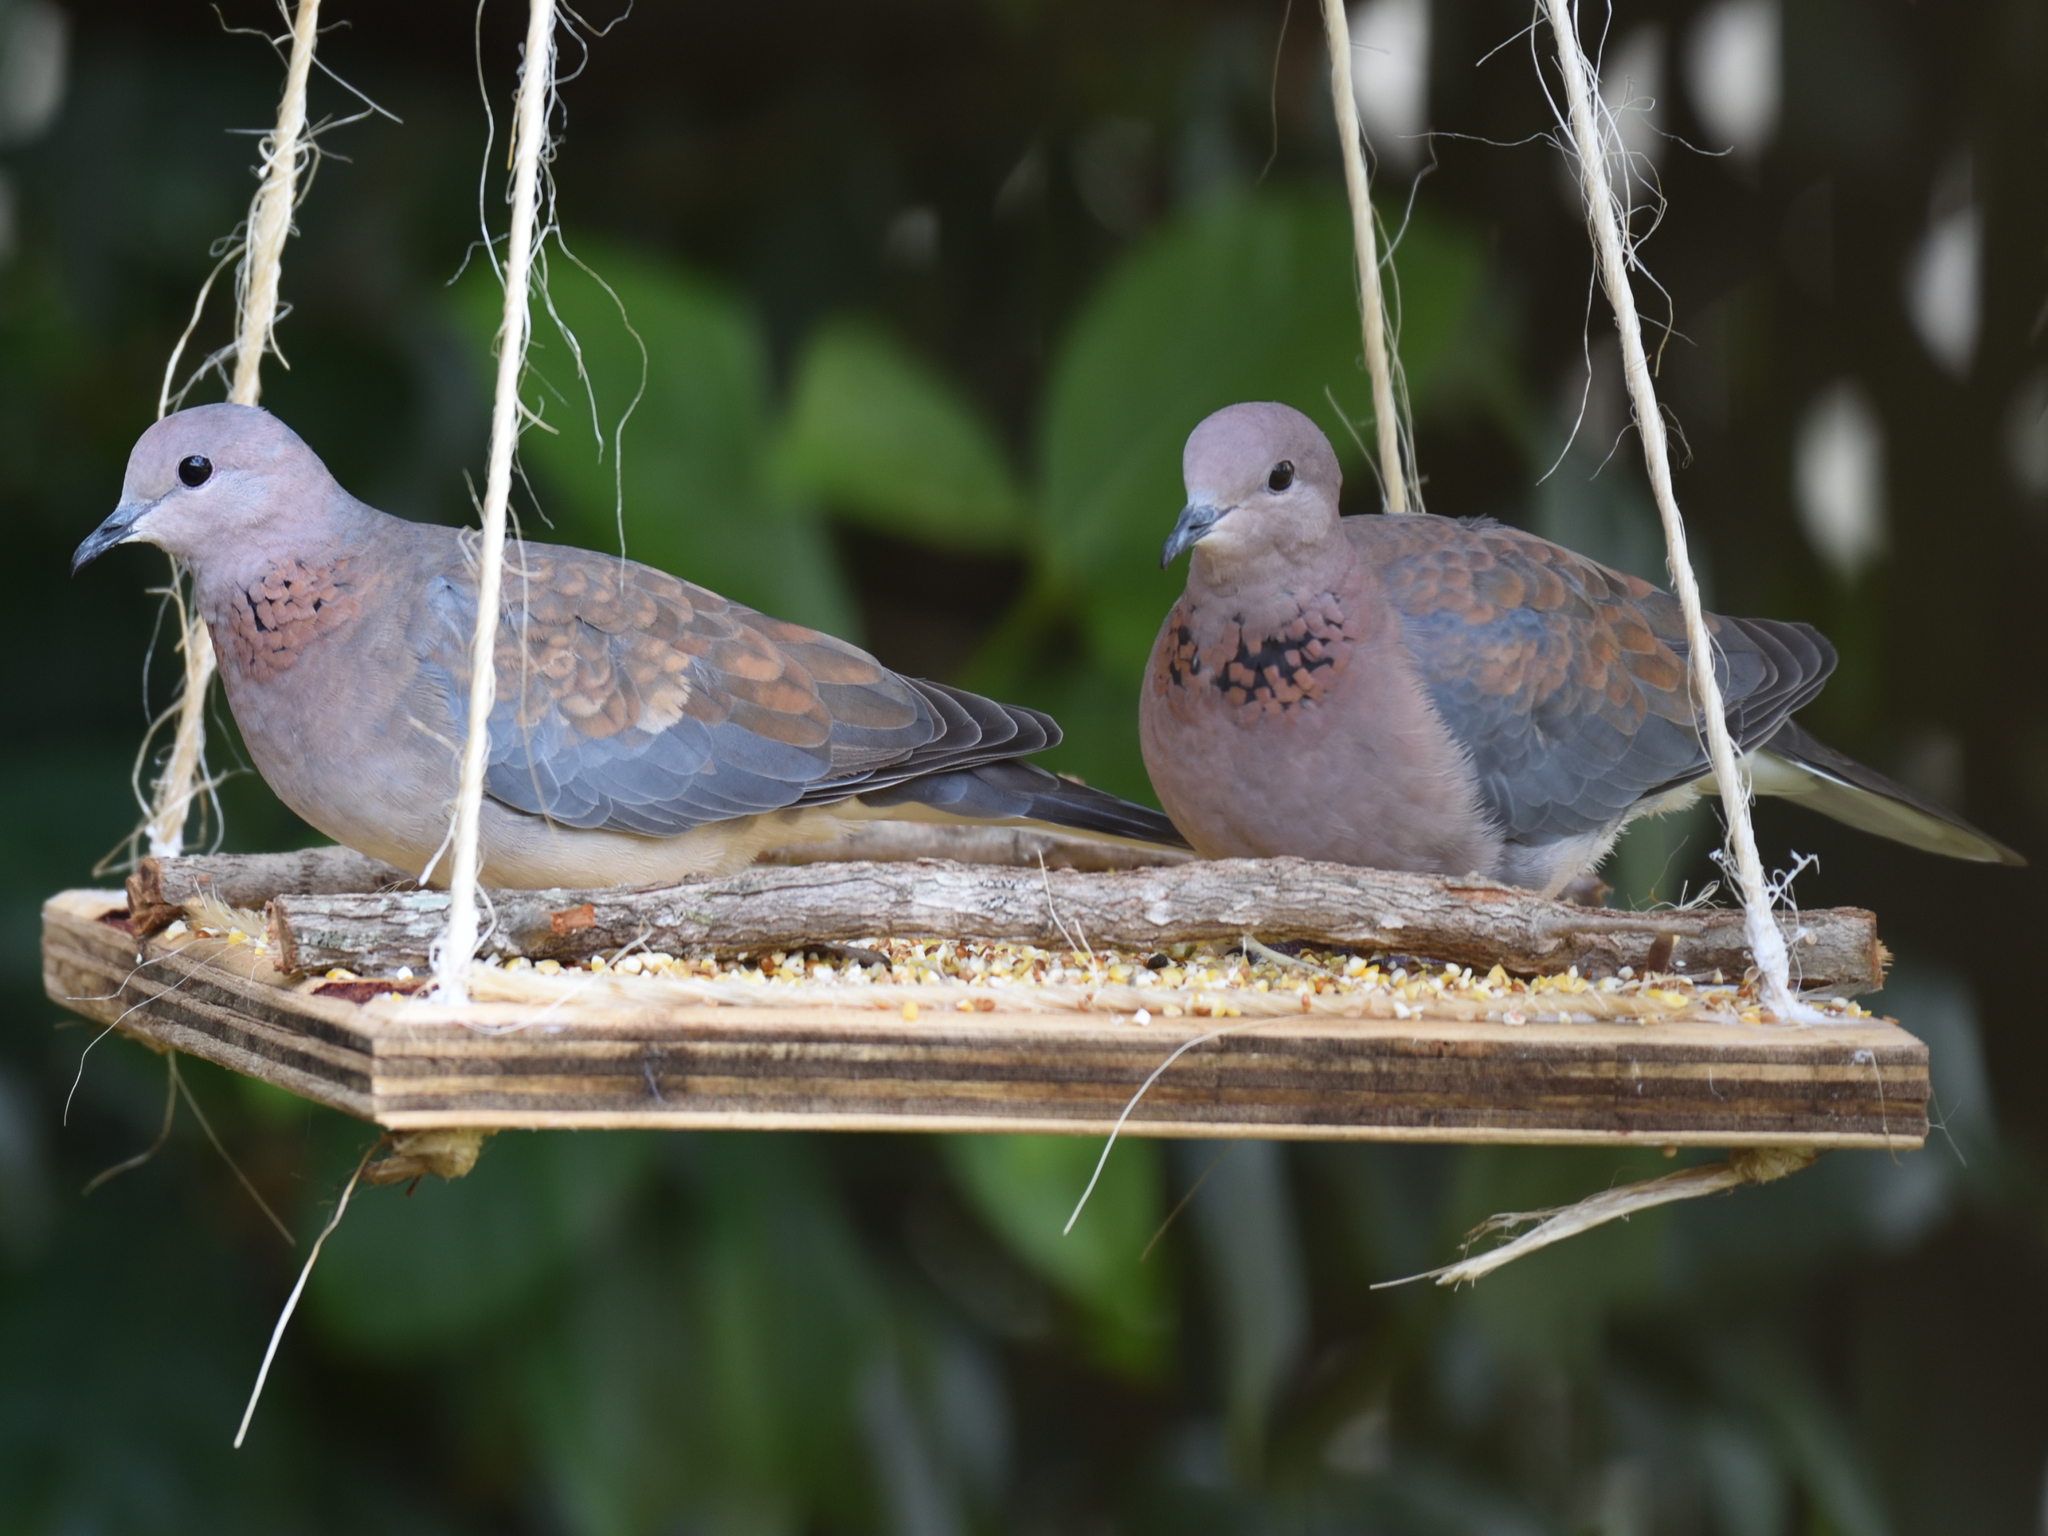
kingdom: Animalia
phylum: Chordata
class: Aves
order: Columbiformes
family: Columbidae
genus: Spilopelia
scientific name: Spilopelia senegalensis
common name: Laughing dove
